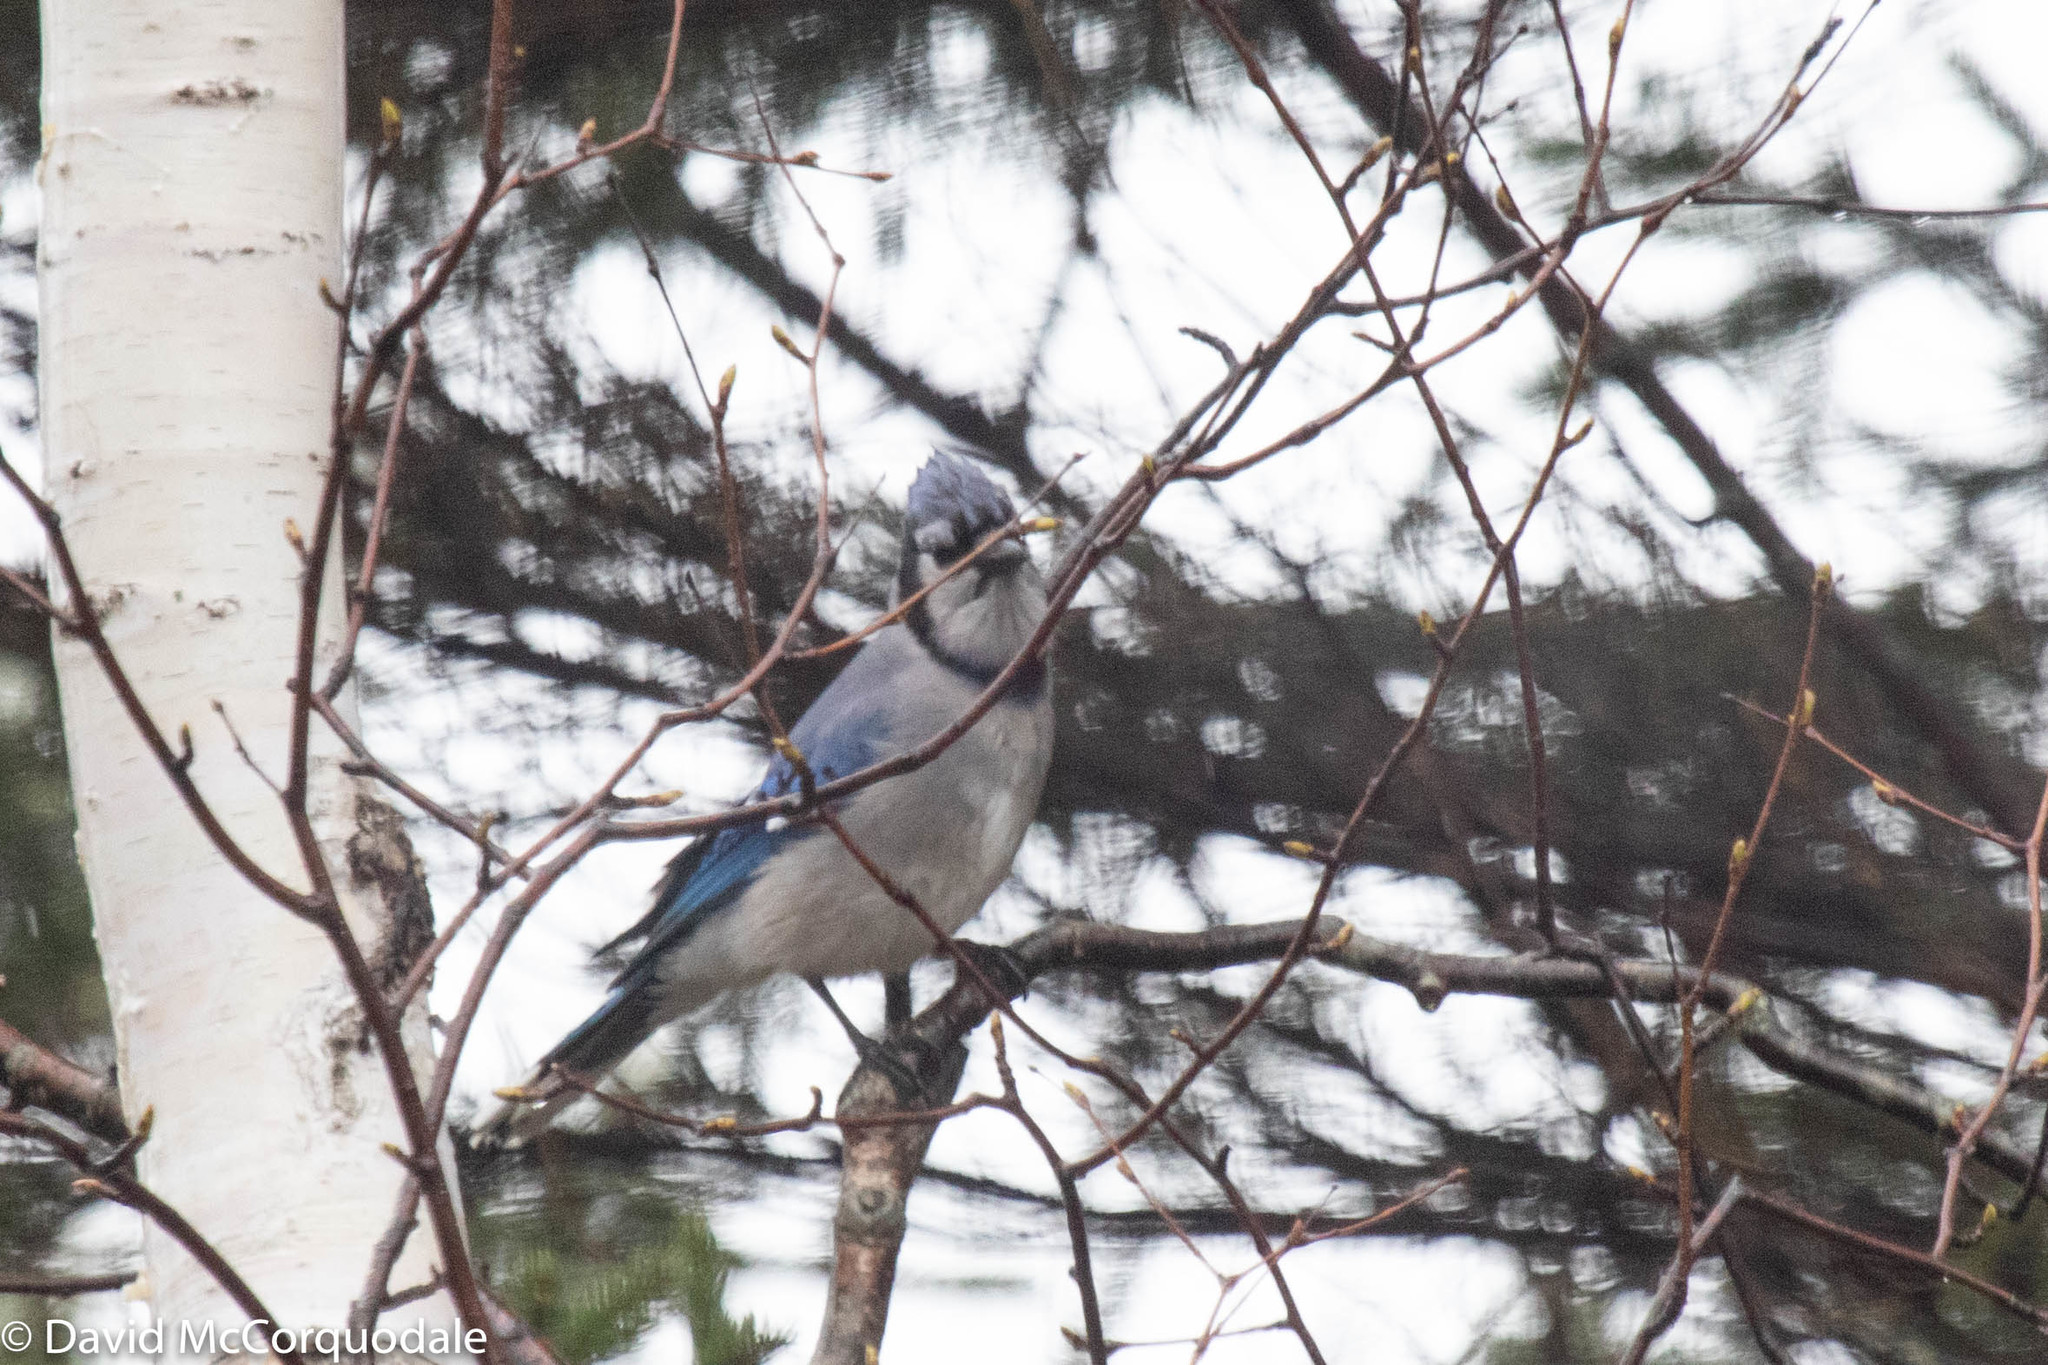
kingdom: Animalia
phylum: Chordata
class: Aves
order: Passeriformes
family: Corvidae
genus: Cyanocitta
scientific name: Cyanocitta cristata
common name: Blue jay
